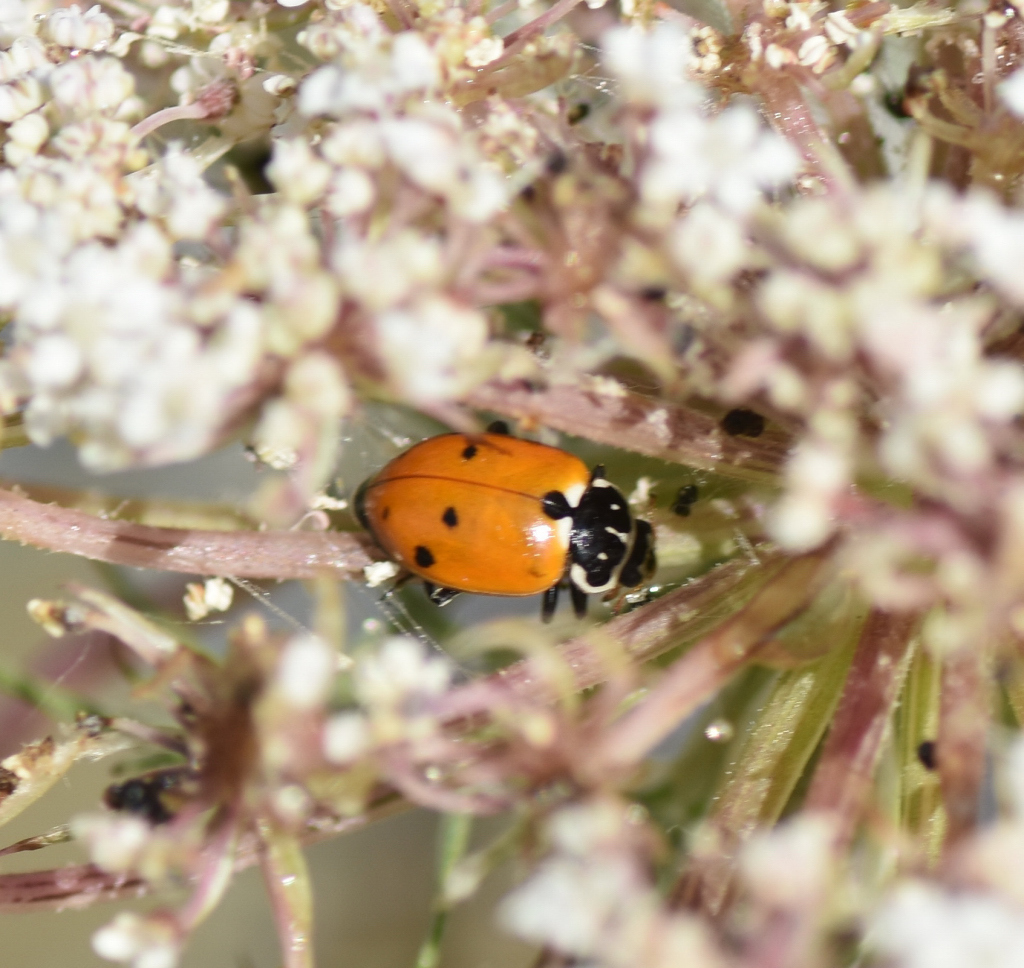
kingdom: Animalia
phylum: Arthropoda
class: Insecta
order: Coleoptera
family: Coccinellidae
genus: Hippodamia
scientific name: Hippodamia variegata
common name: Ladybird beetle
